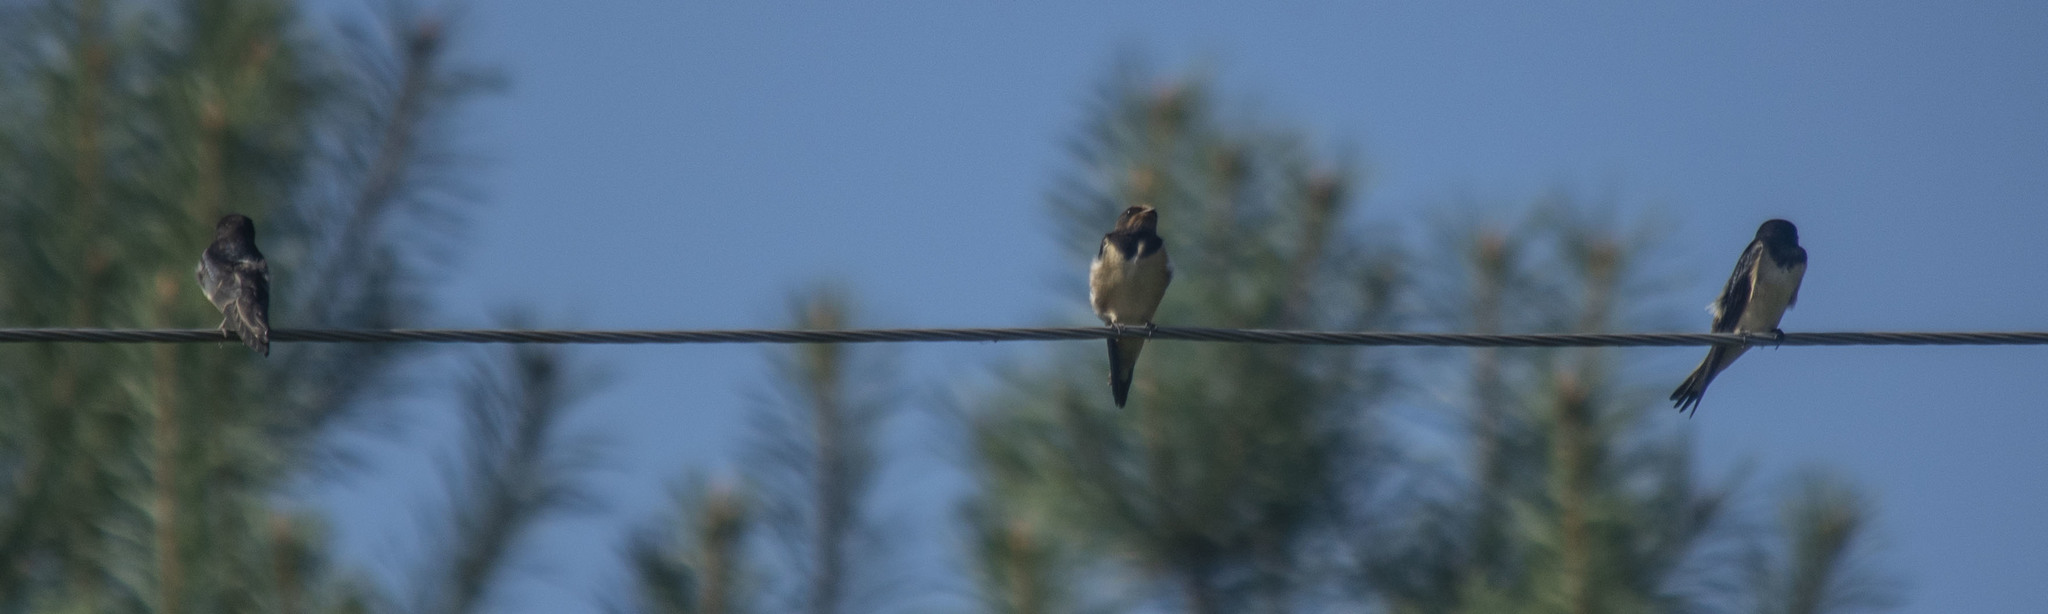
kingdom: Animalia
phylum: Chordata
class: Aves
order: Passeriformes
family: Hirundinidae
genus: Hirundo
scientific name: Hirundo rustica
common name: Barn swallow
